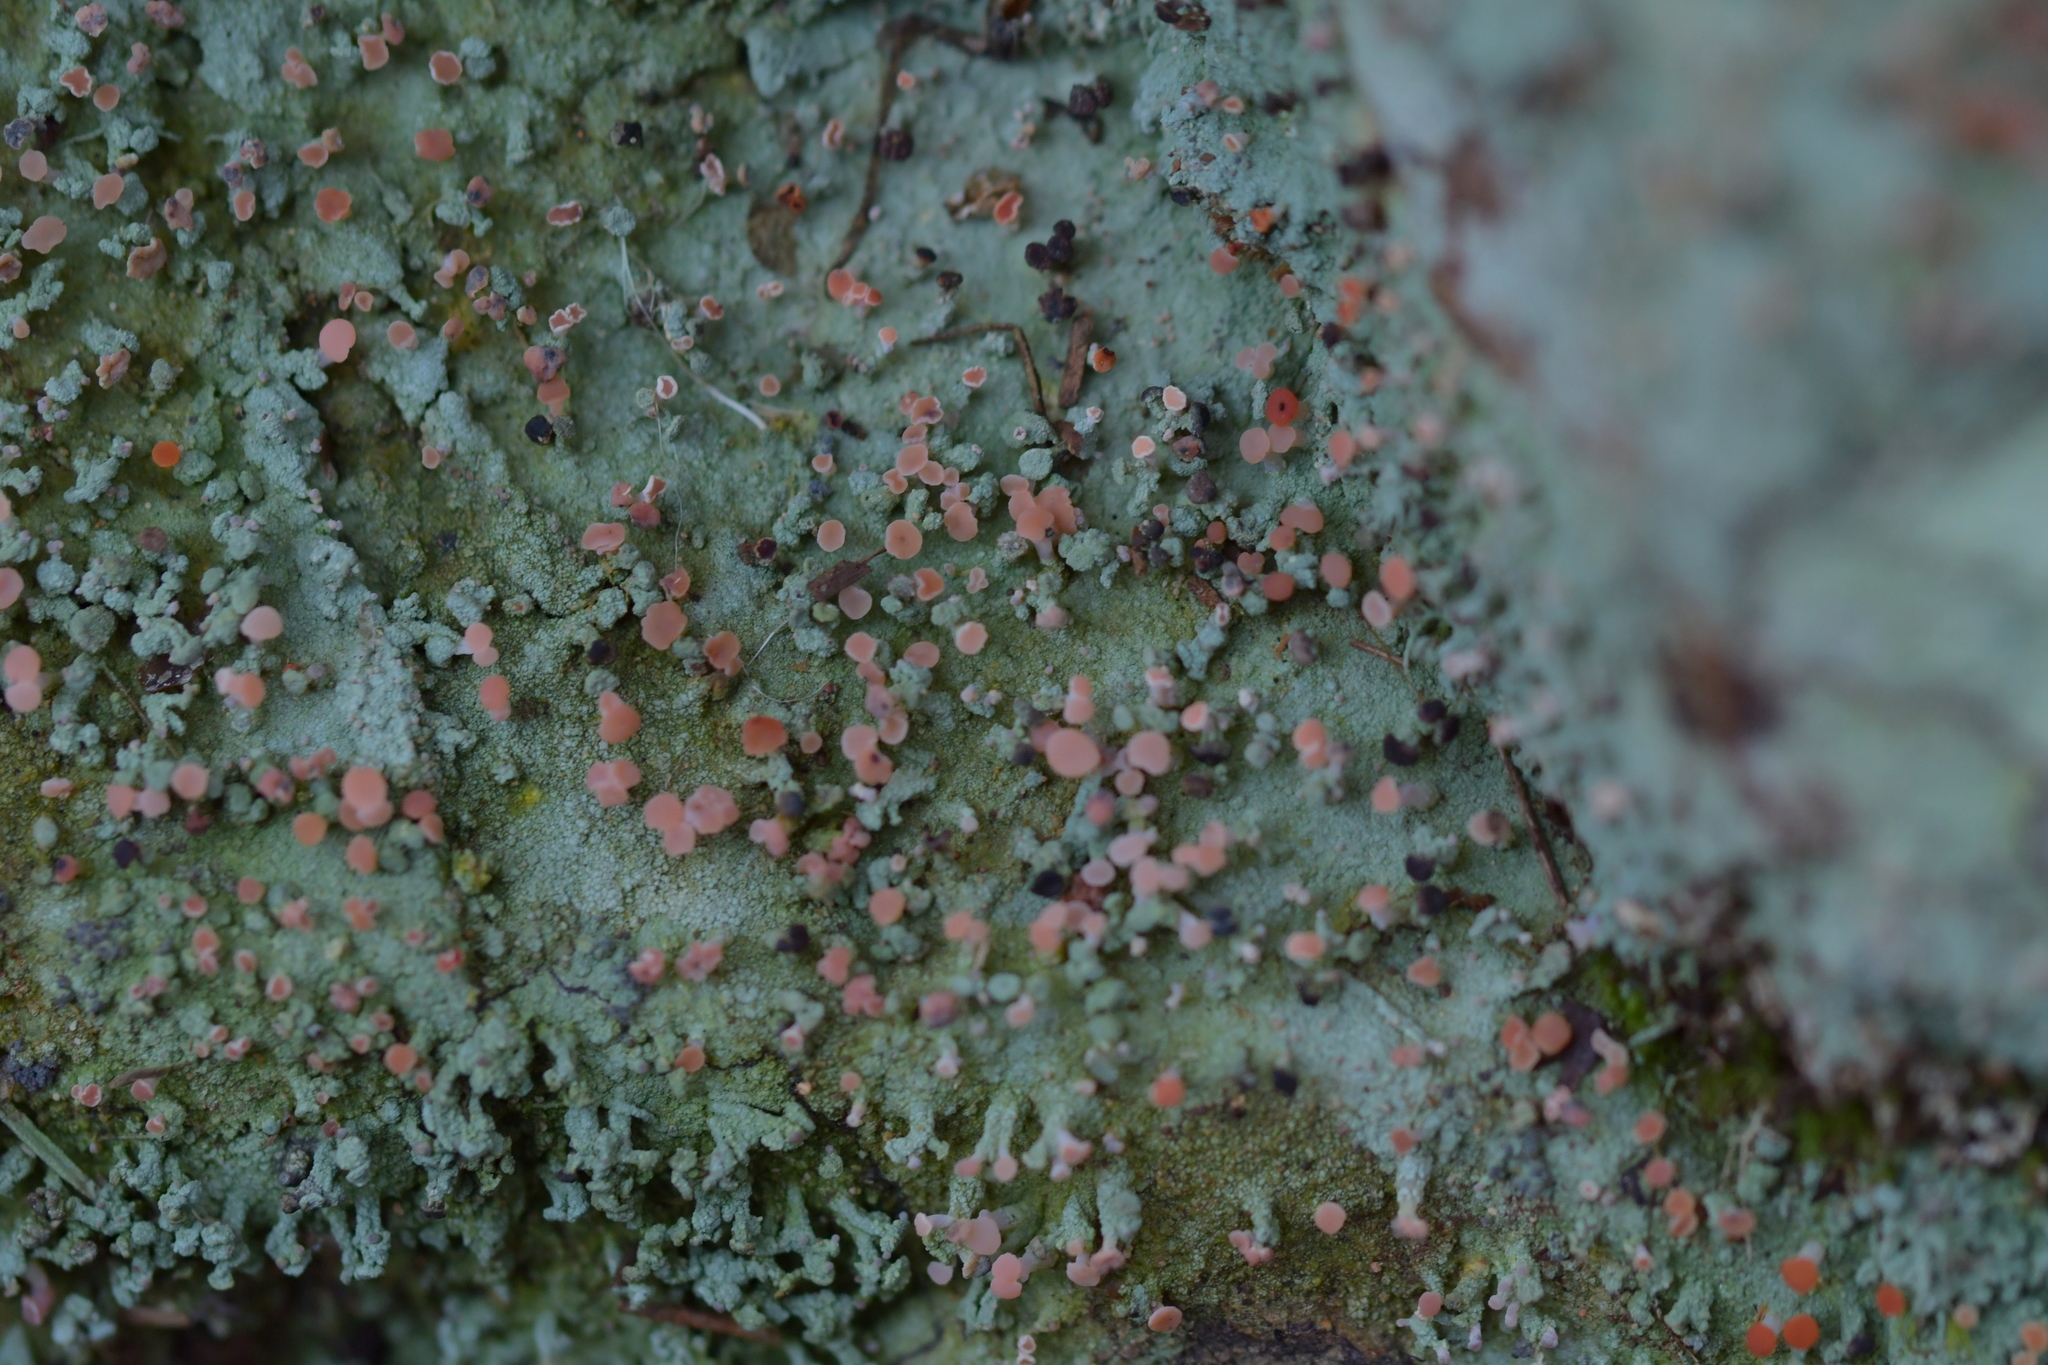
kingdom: Fungi
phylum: Ascomycota
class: Lecanoromycetes
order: Baeomycetales
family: Baeomycetaceae
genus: Baeomyces
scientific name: Baeomyces heteromorphus
